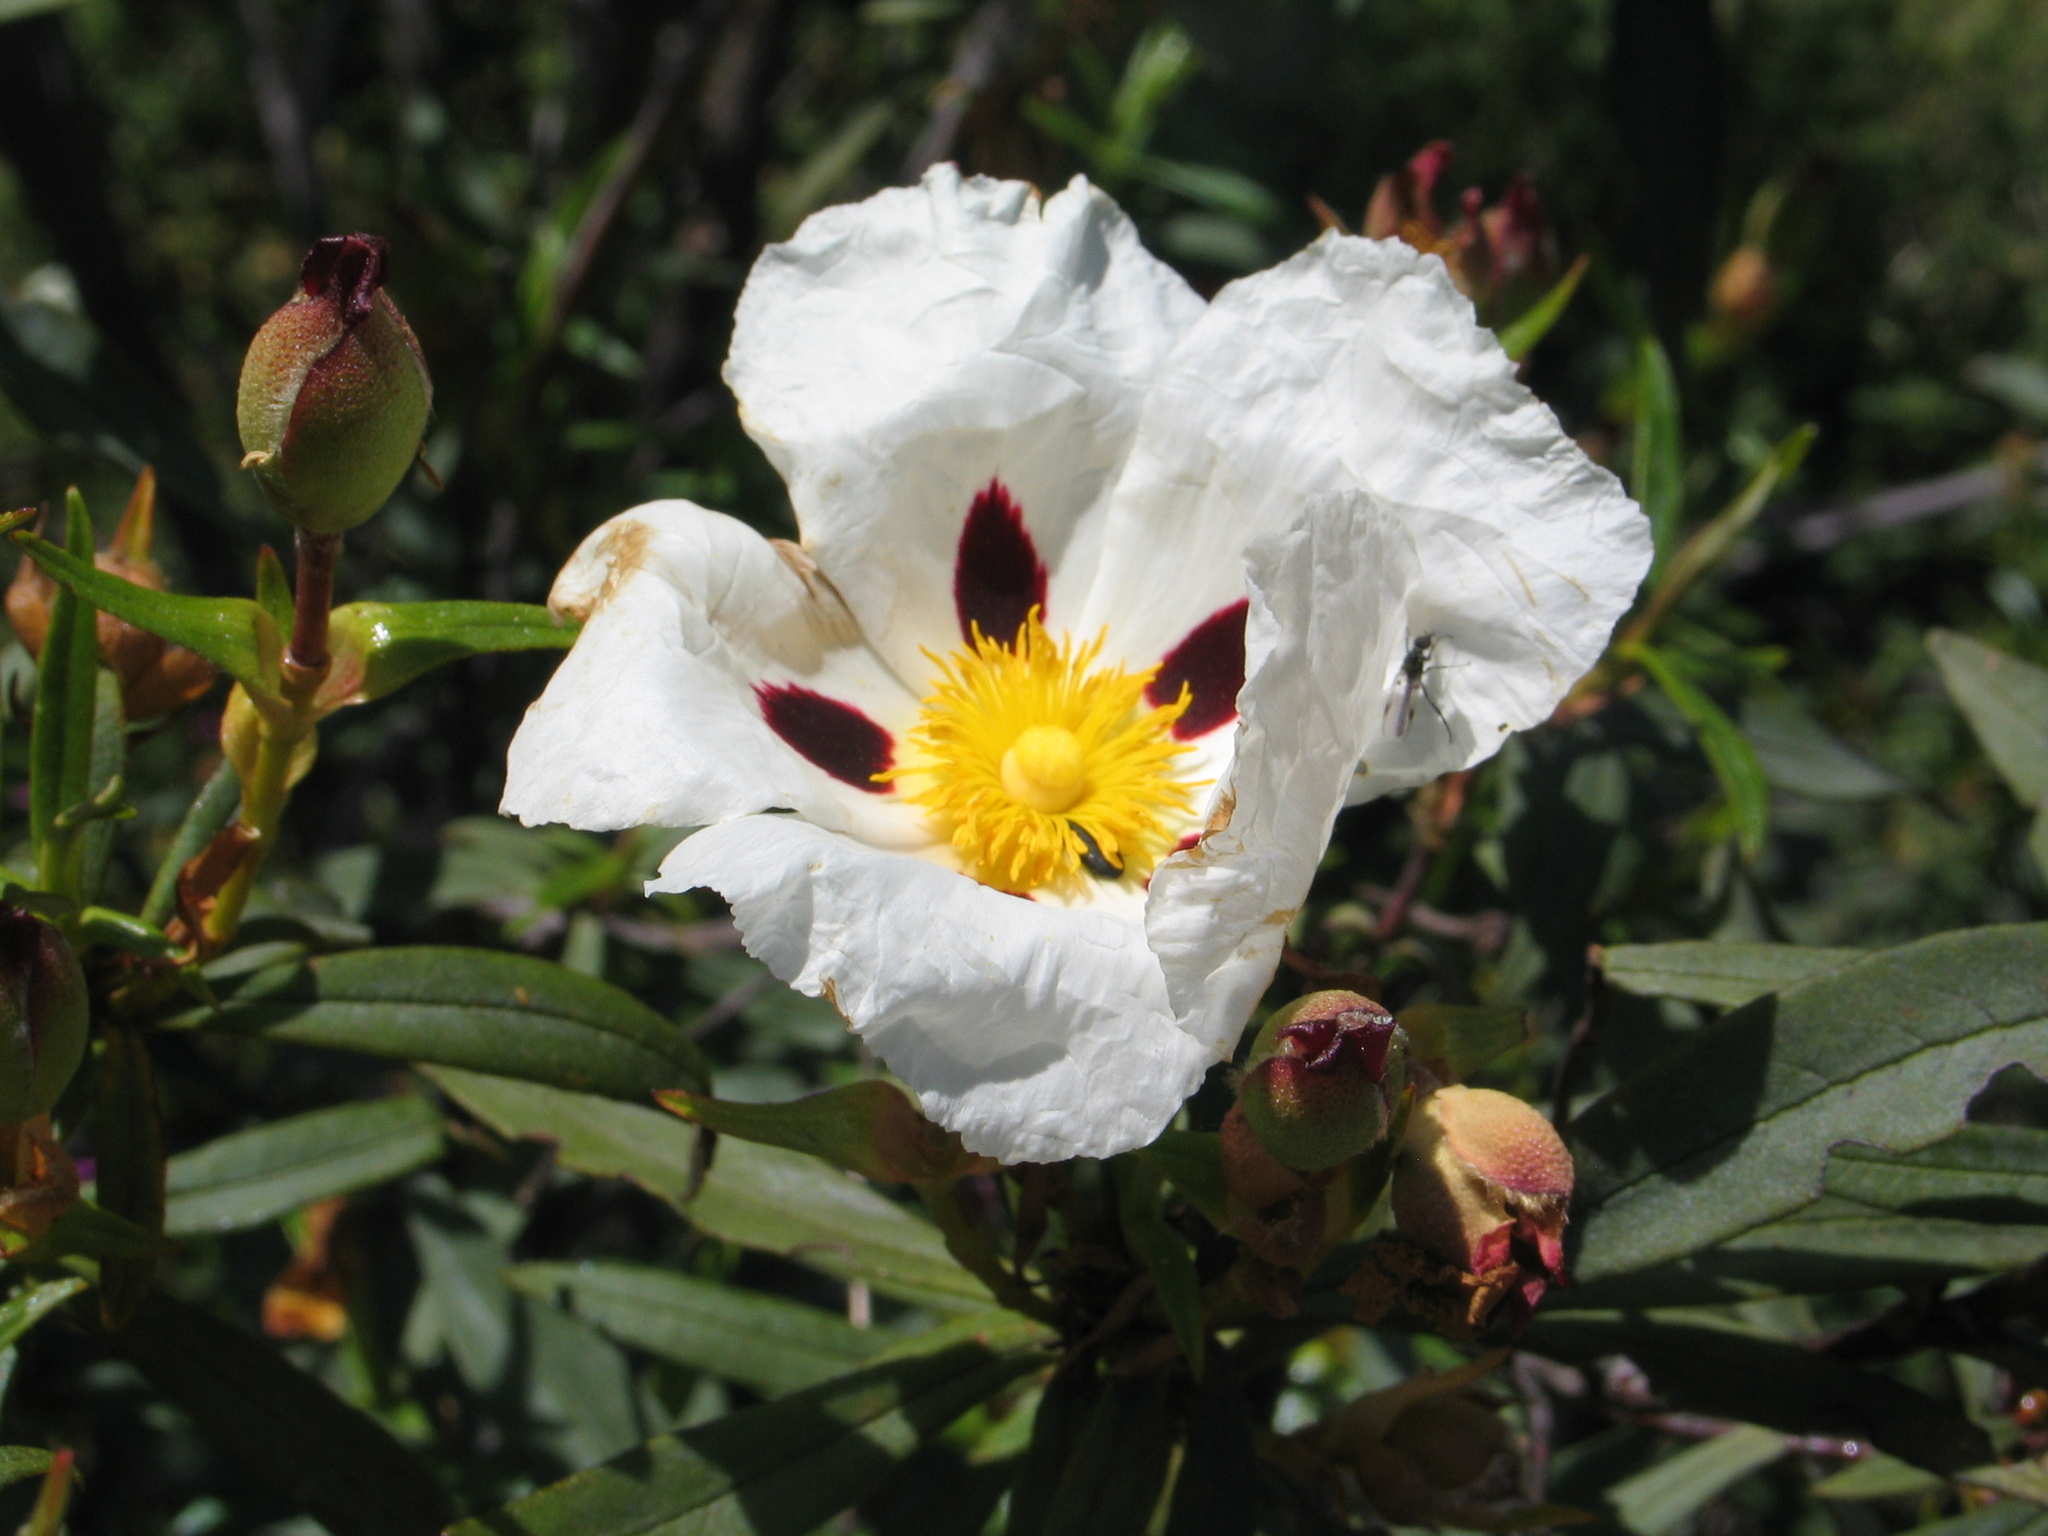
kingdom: Plantae
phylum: Tracheophyta
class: Magnoliopsida
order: Malvales
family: Cistaceae
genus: Cistus
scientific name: Cistus ladanifer
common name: Common gum cistus
